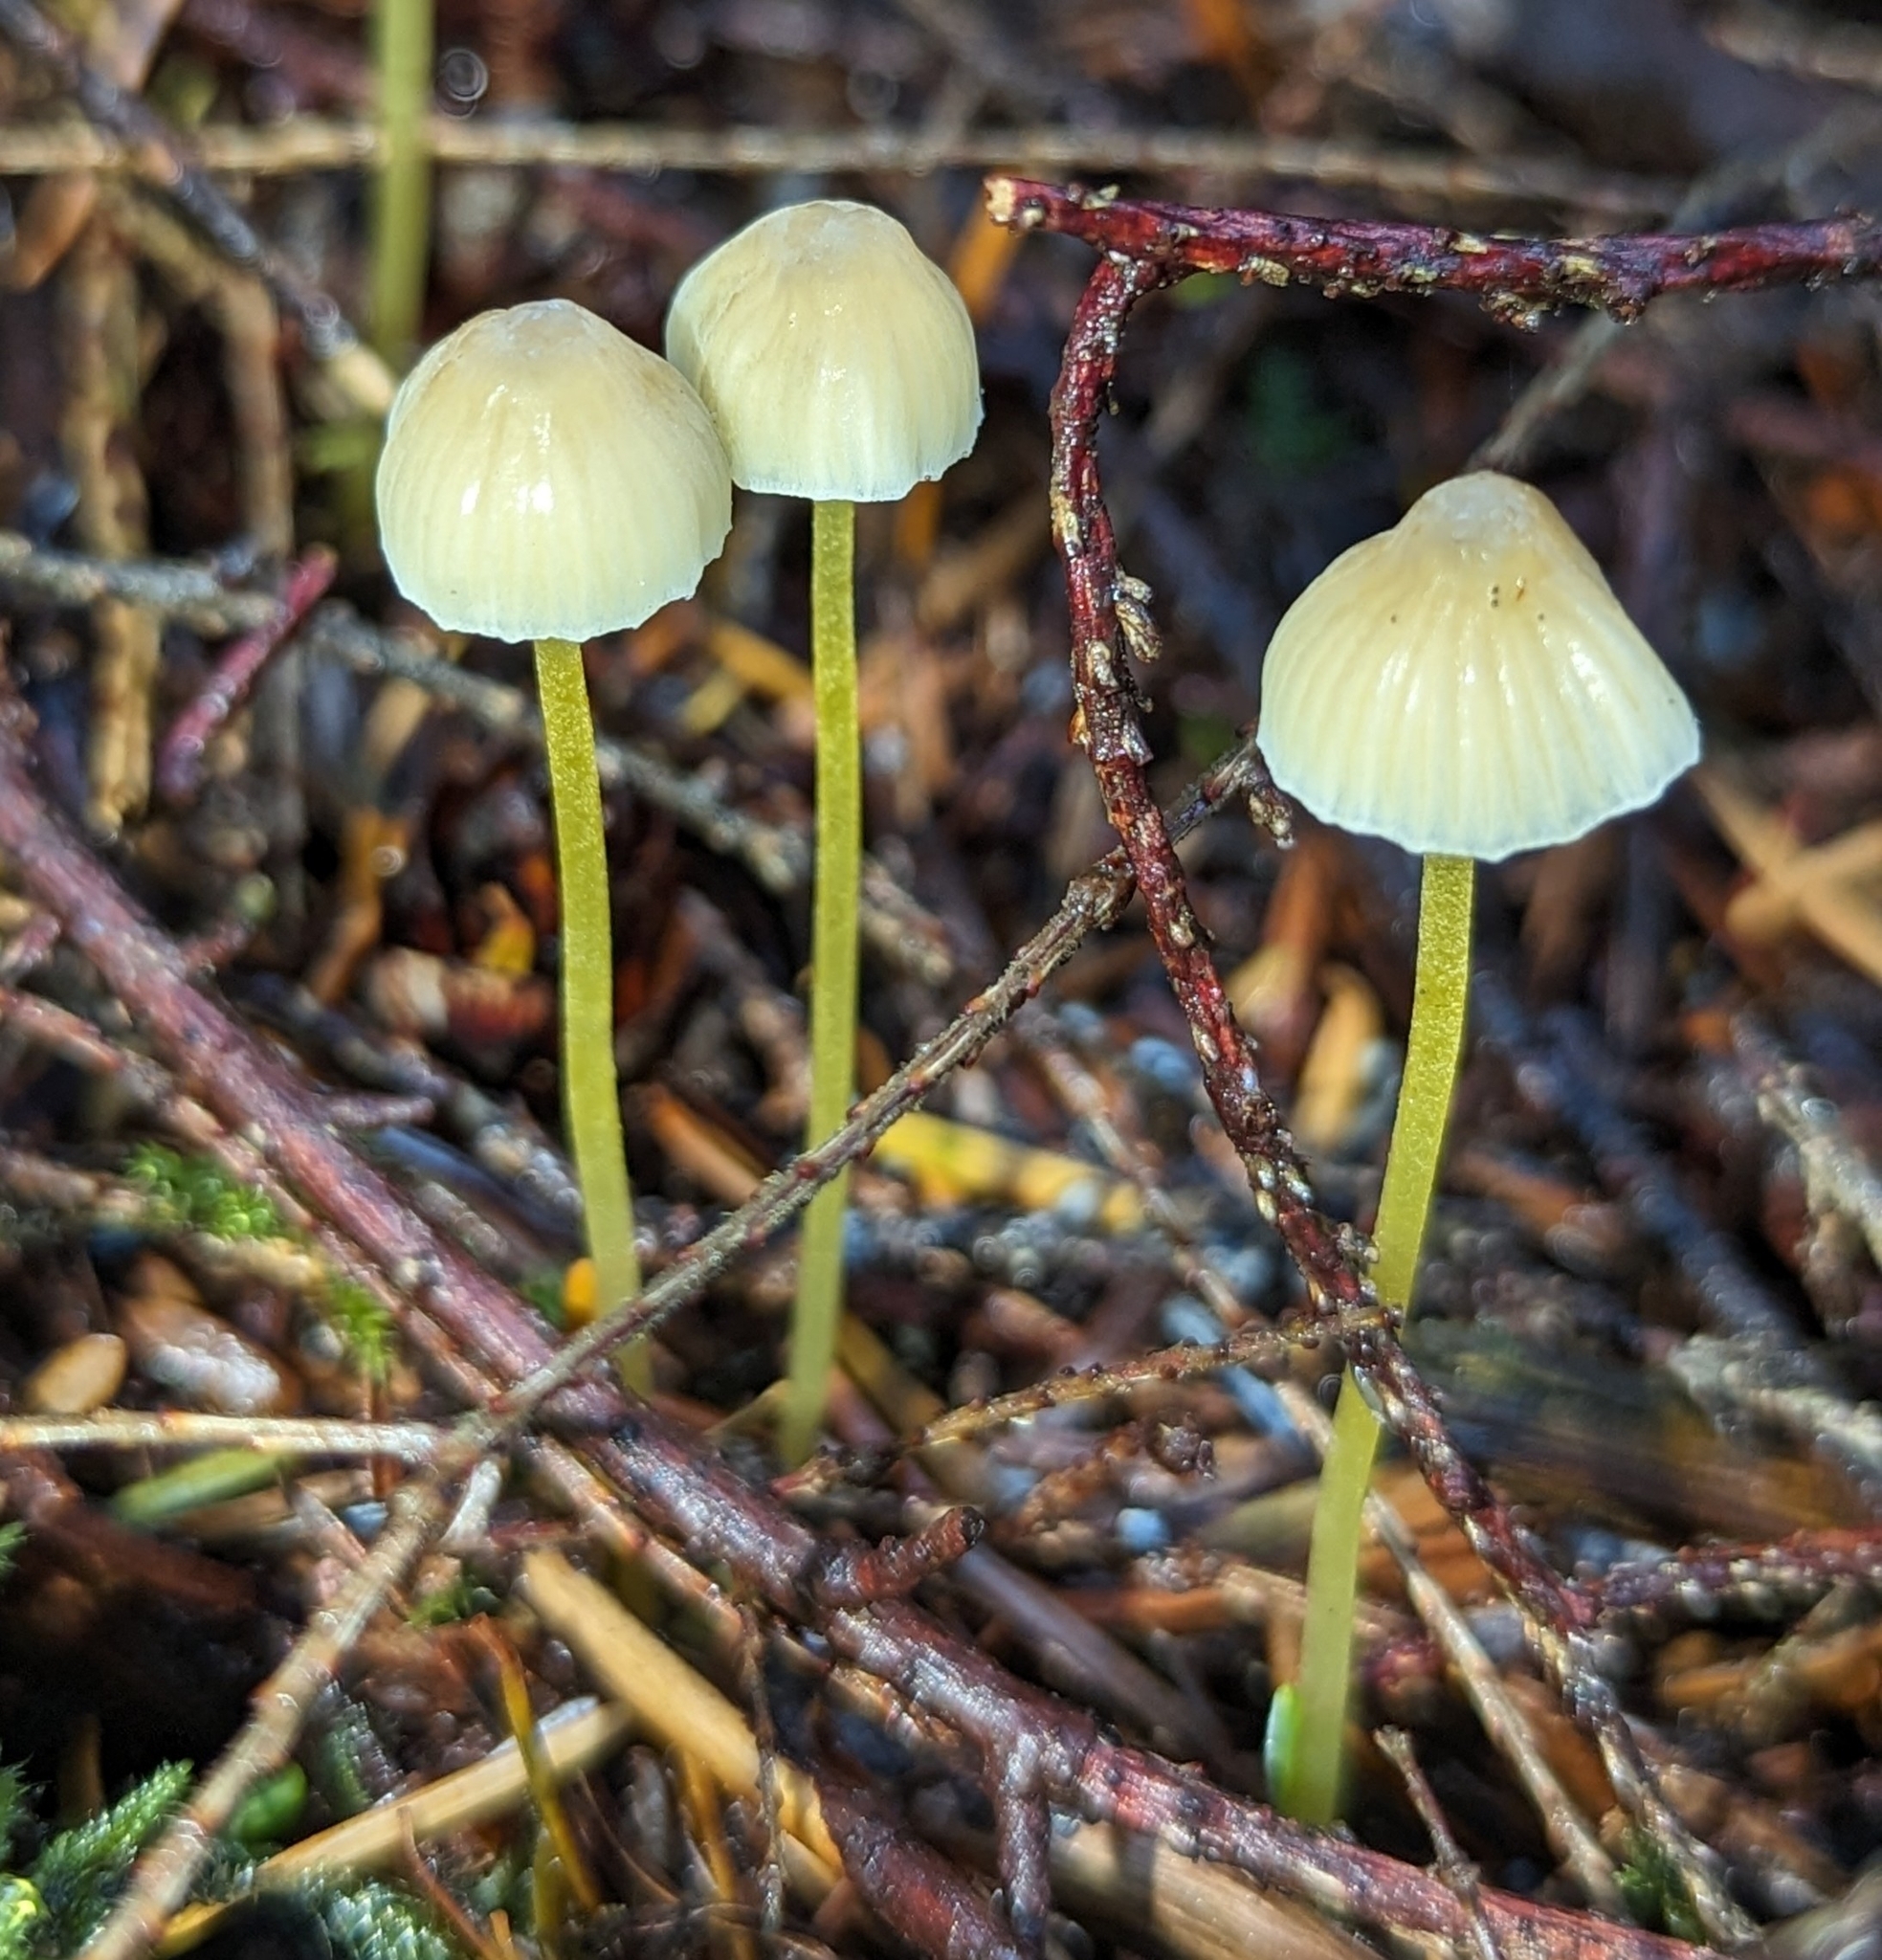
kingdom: Fungi
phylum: Basidiomycota
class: Agaricomycetes
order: Agaricales
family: Mycenaceae
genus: Mycena
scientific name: Mycena epipterygia
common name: Yellowleg bonnet
